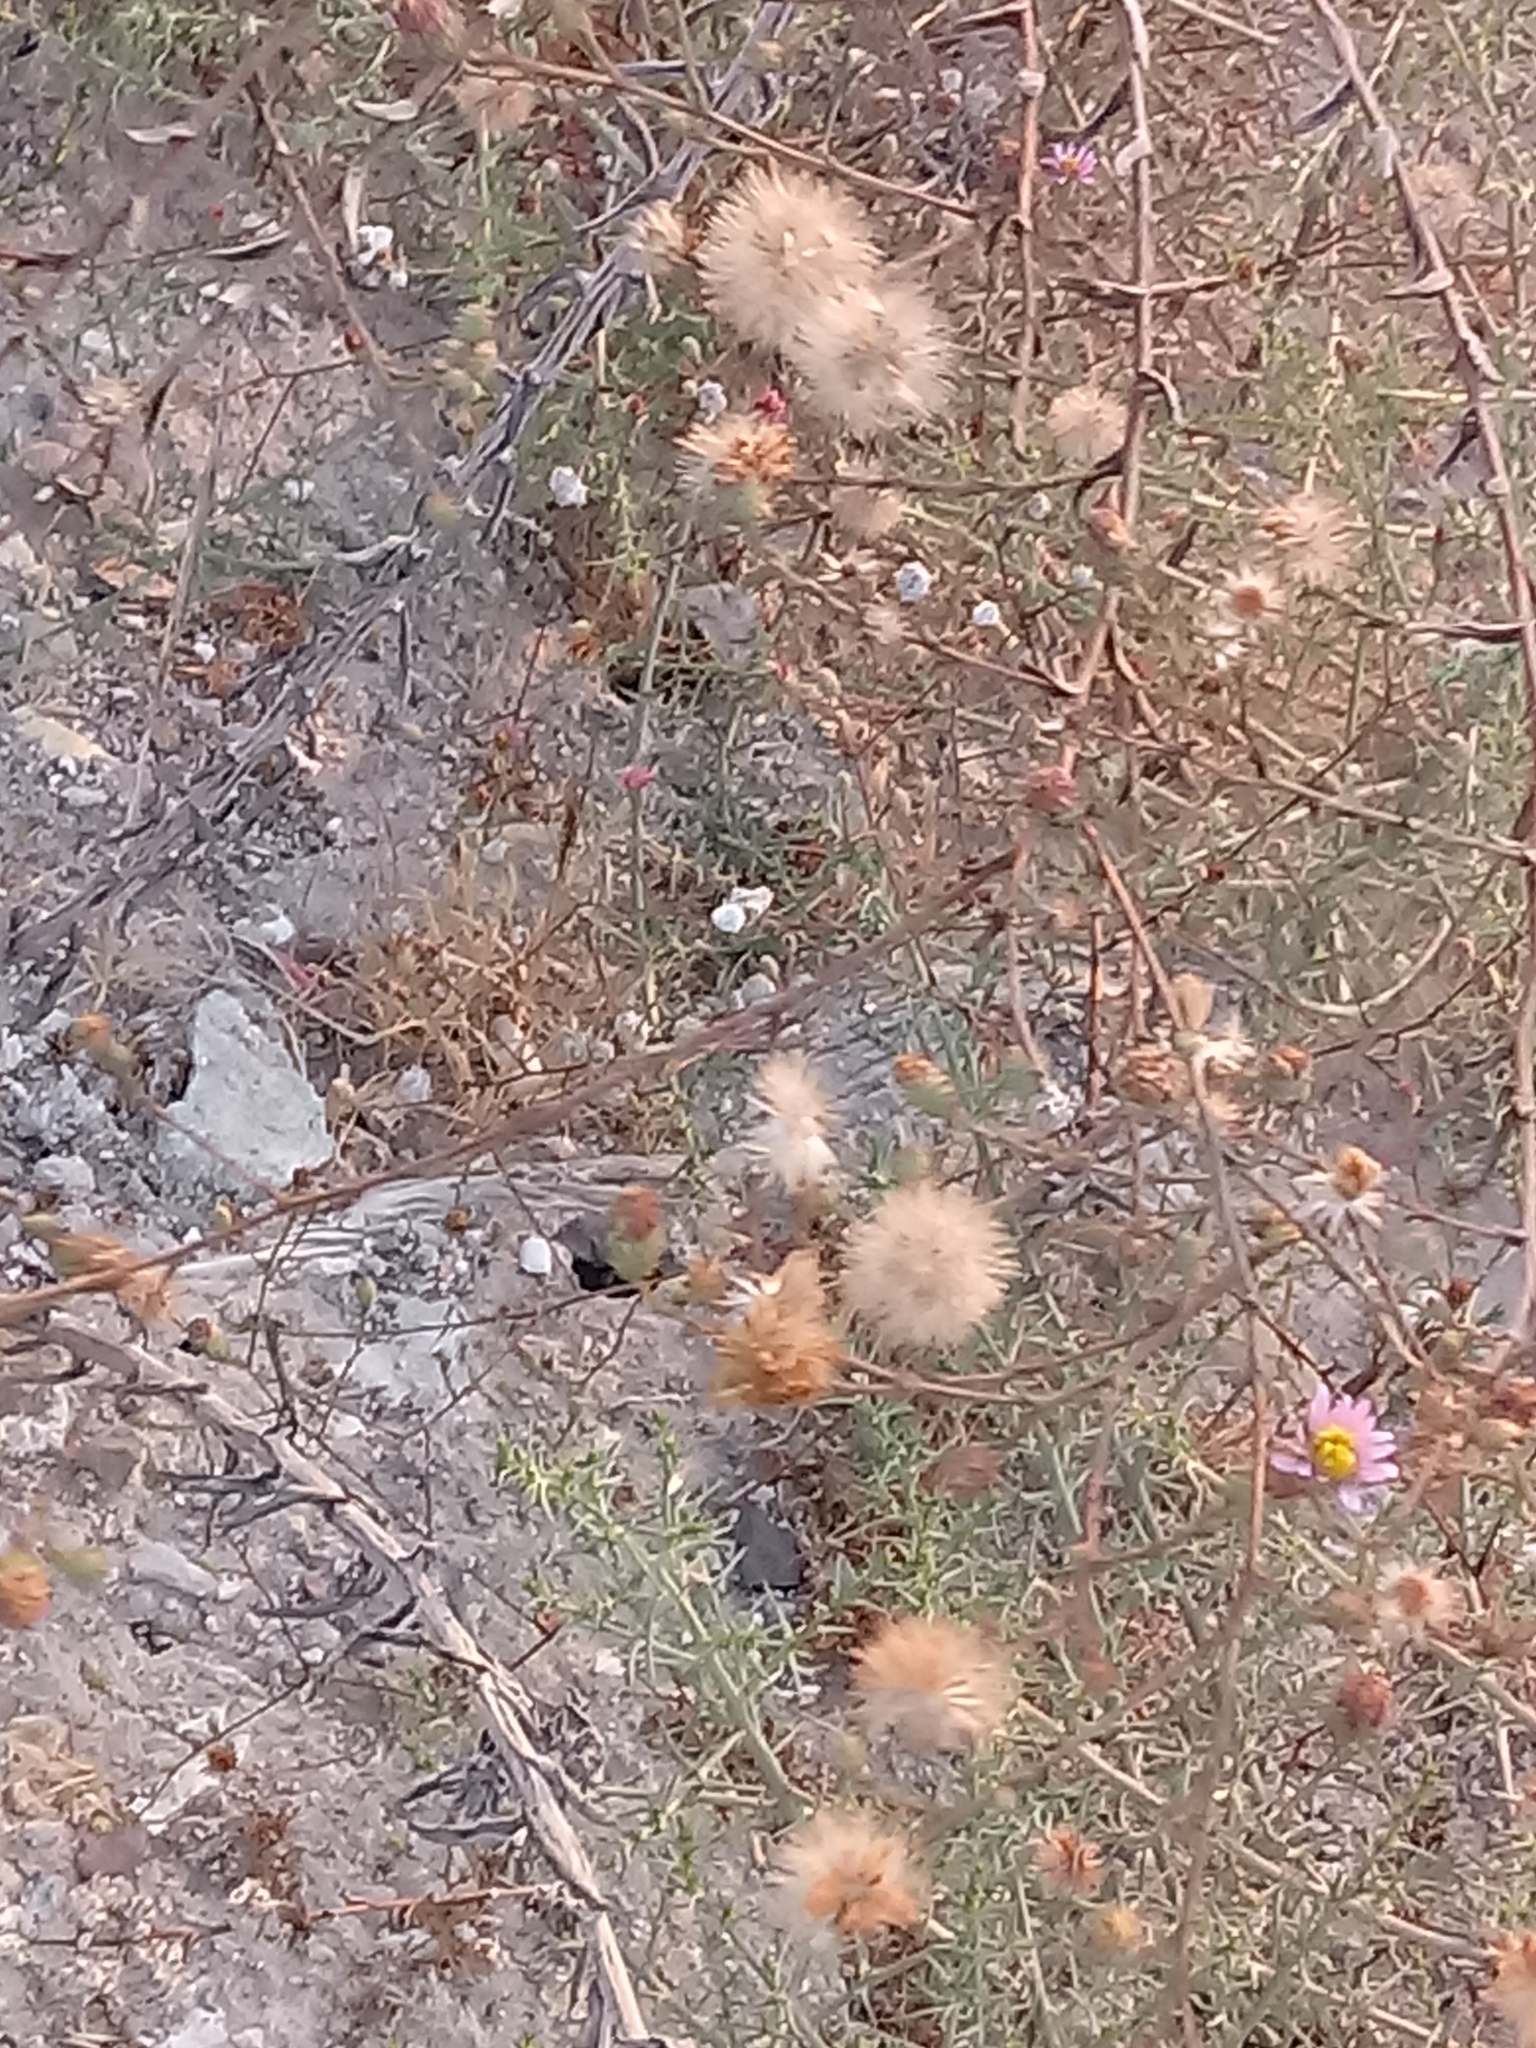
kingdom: Plantae
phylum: Tracheophyta
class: Magnoliopsida
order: Asterales
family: Asteraceae
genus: Corethrogyne
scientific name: Corethrogyne filaginifolia
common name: Sand-aster
